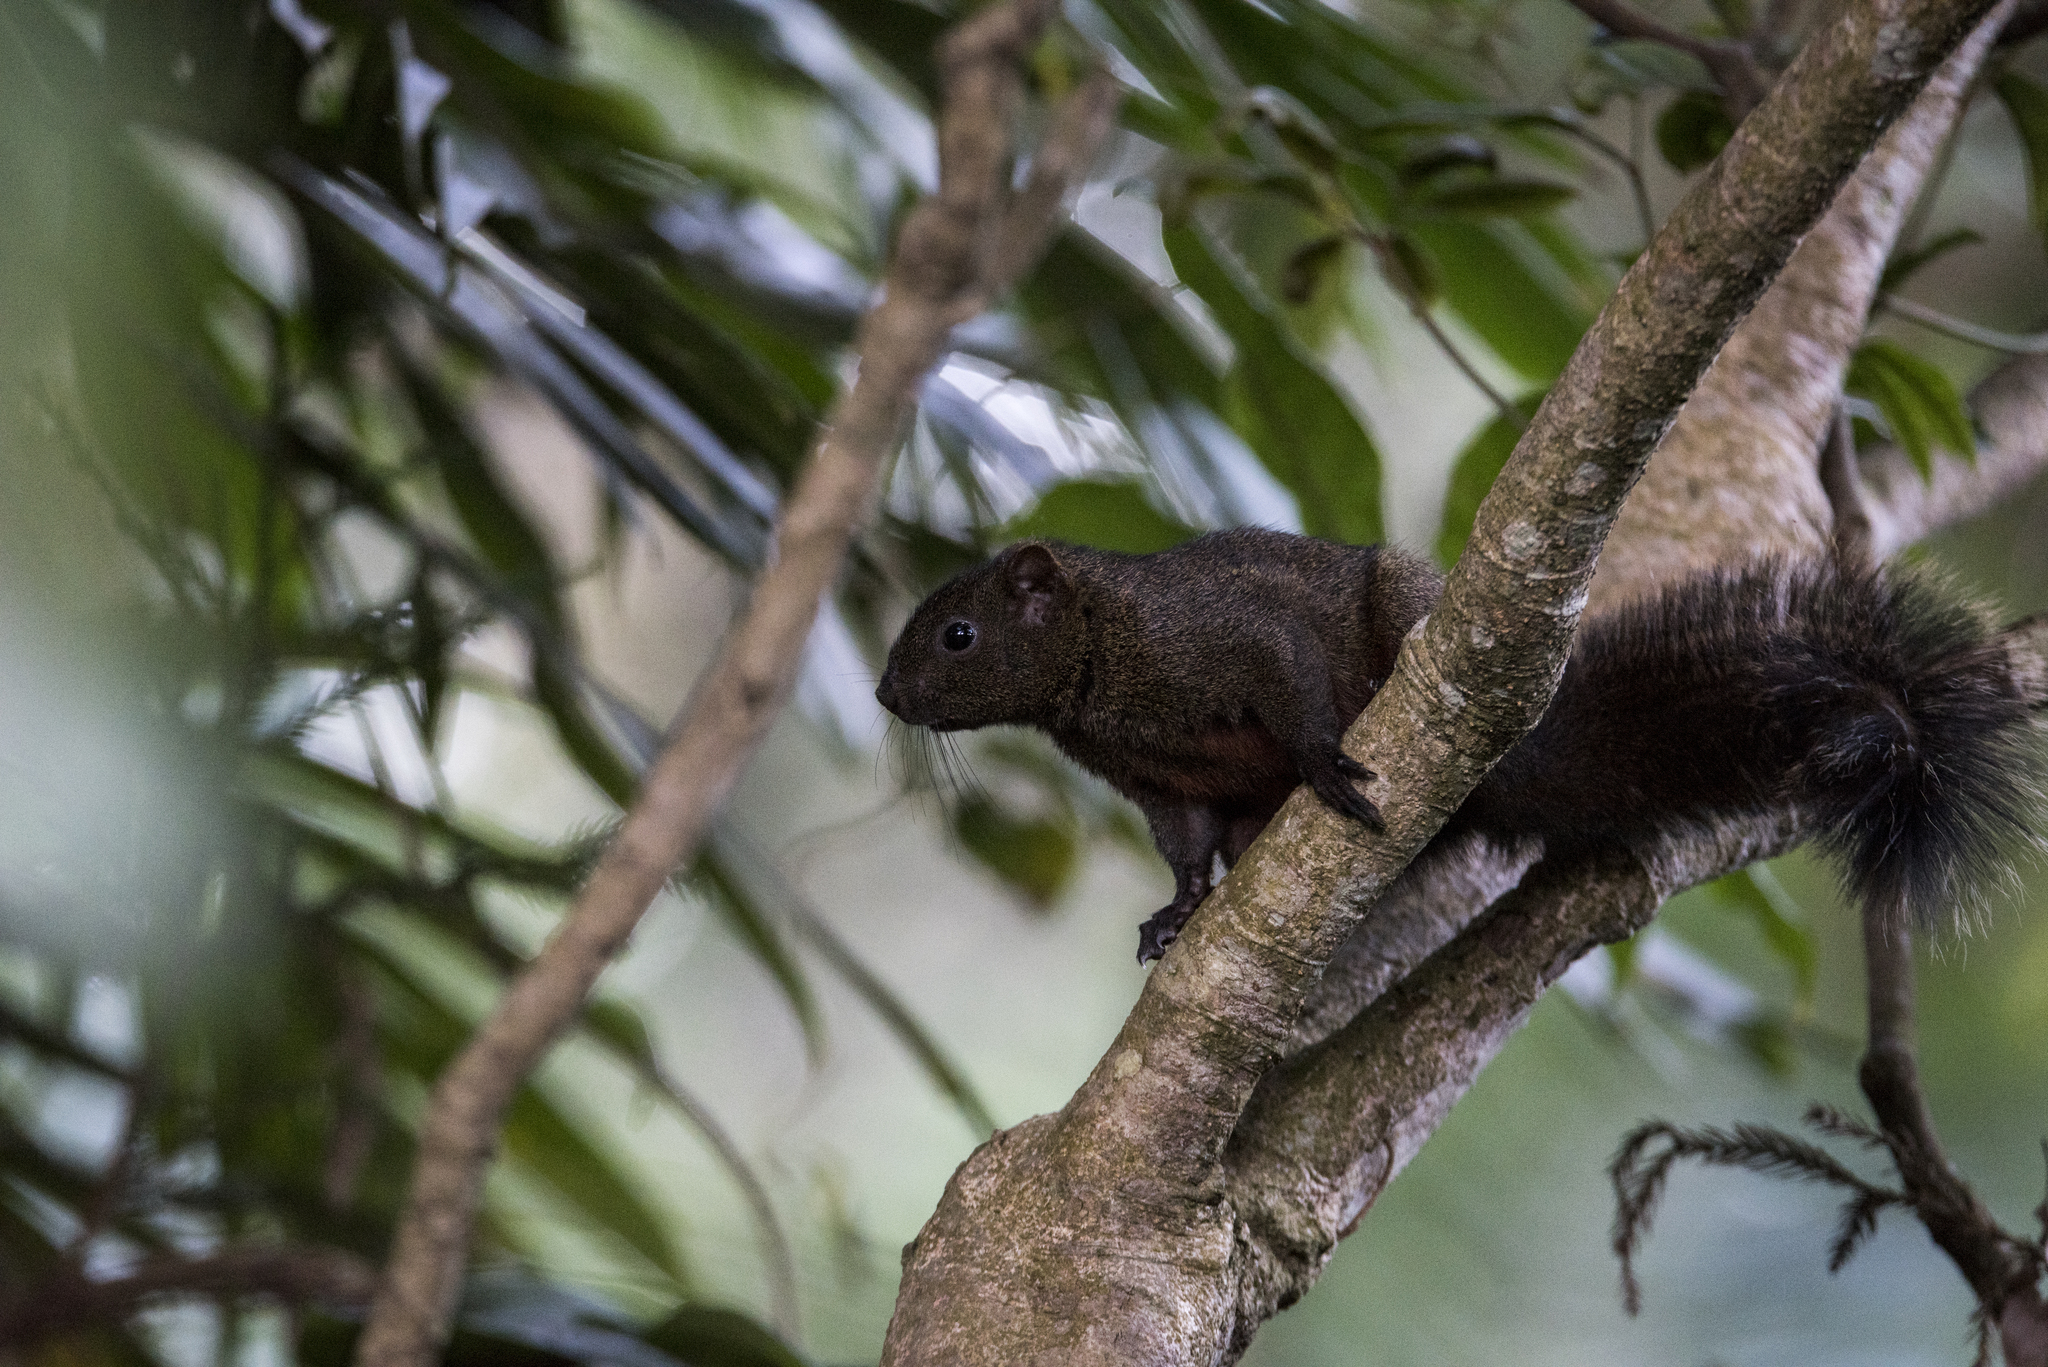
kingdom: Animalia
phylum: Chordata
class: Mammalia
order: Rodentia
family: Sciuridae
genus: Callosciurus
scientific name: Callosciurus erythraeus
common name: Pallas's squirrel
